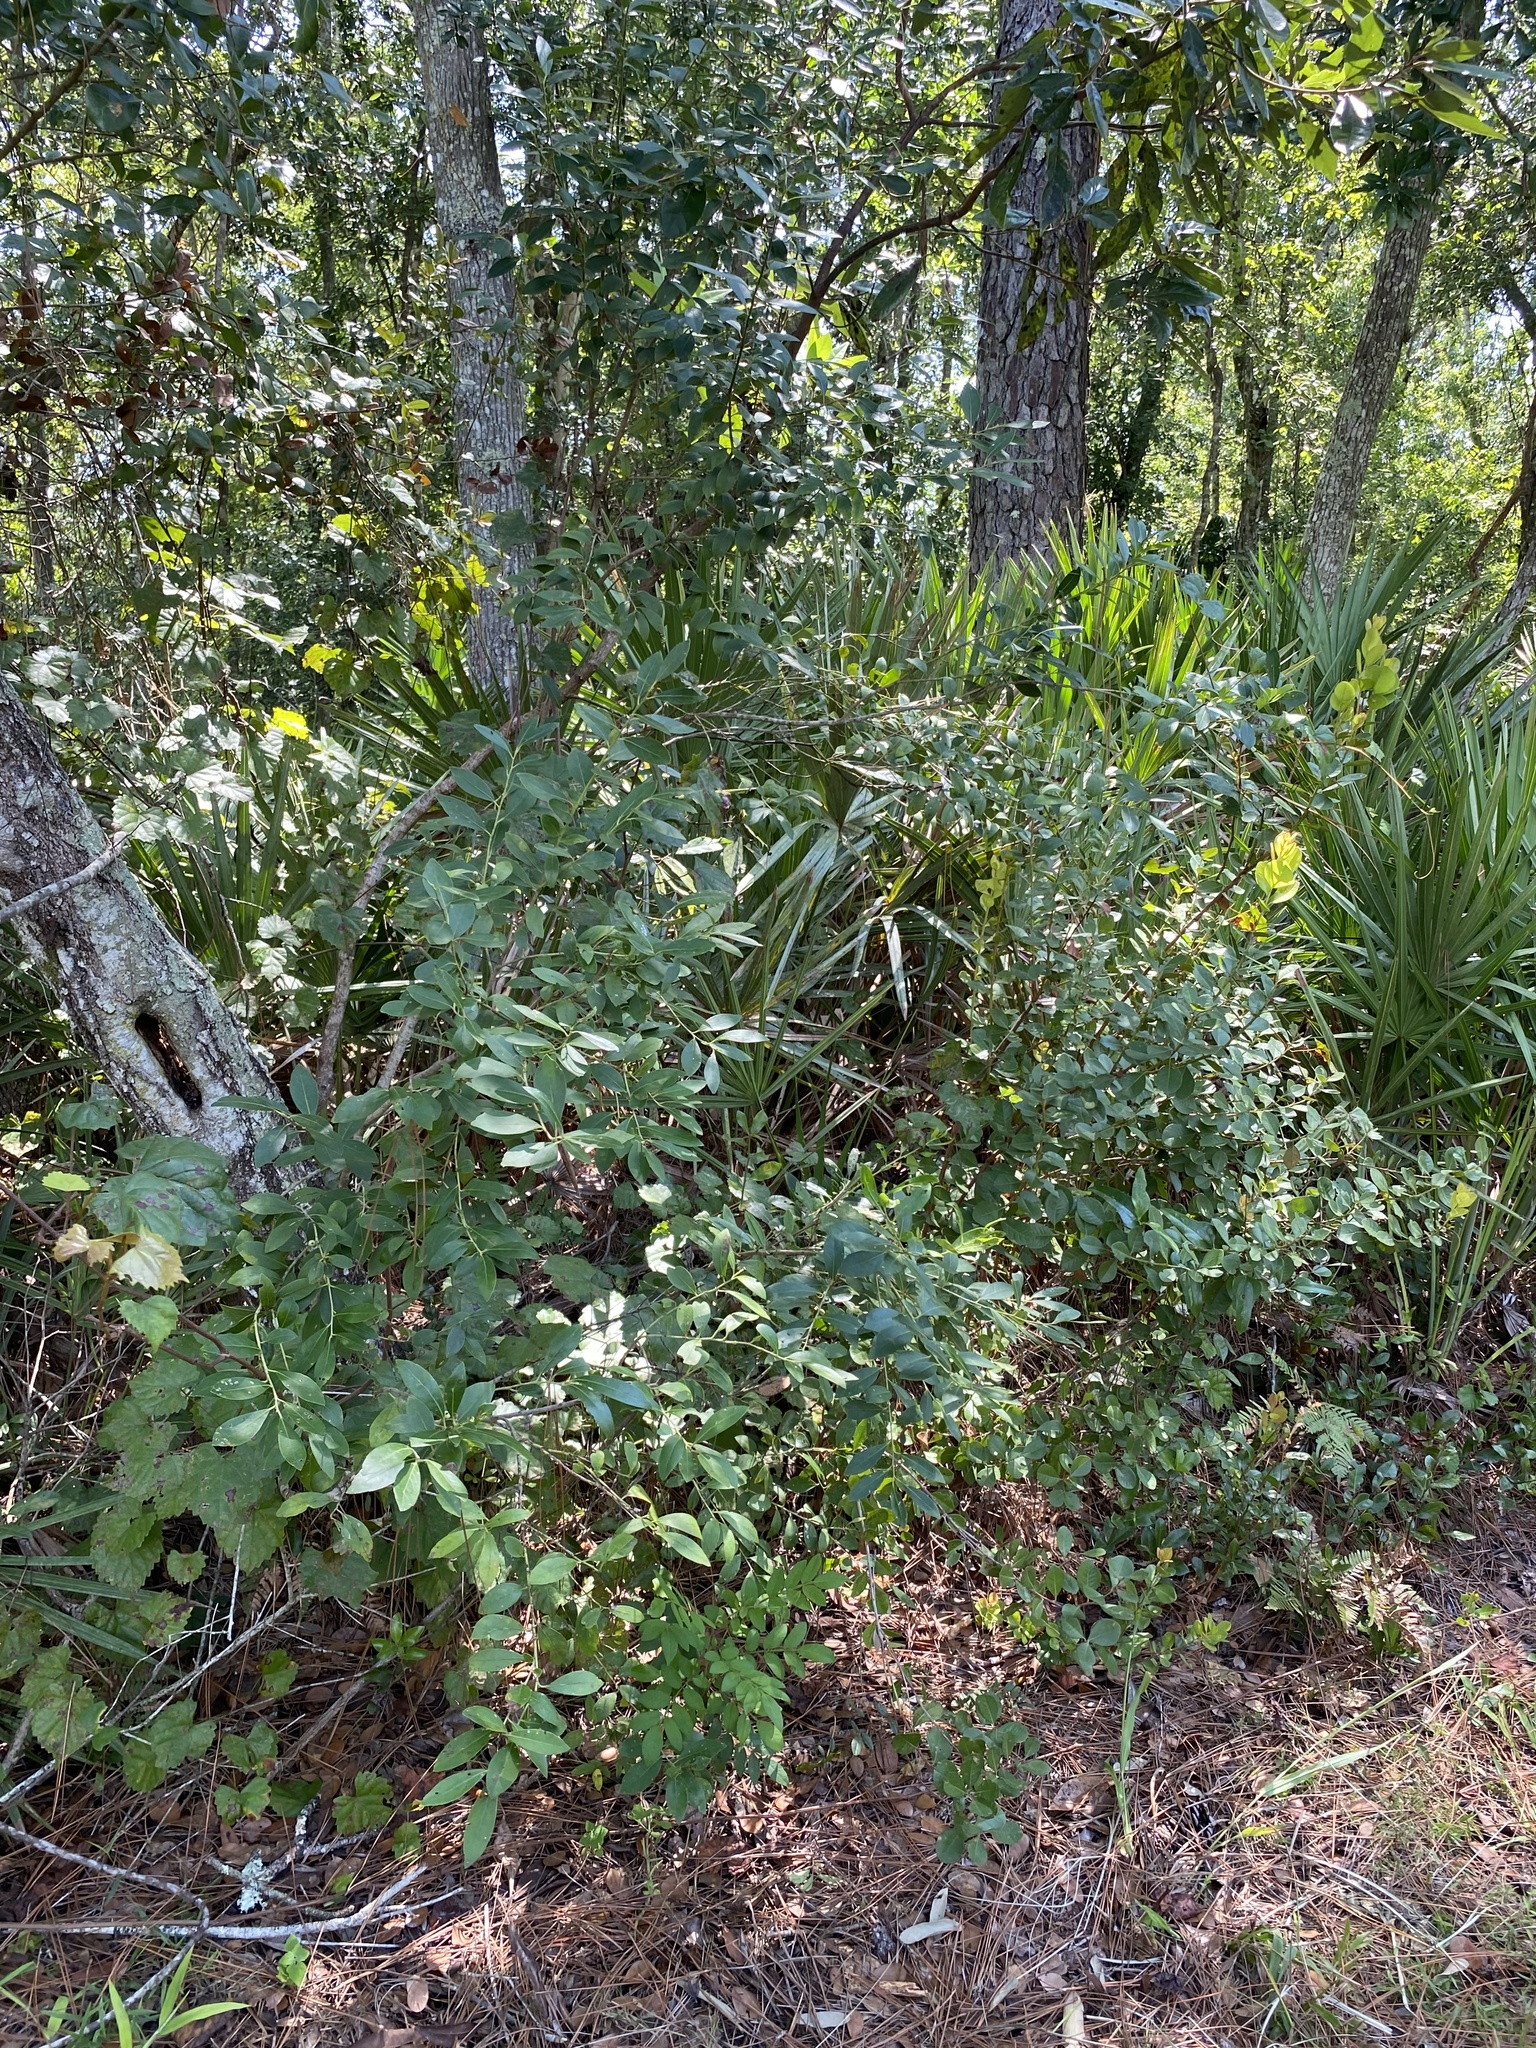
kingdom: Plantae
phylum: Tracheophyta
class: Magnoliopsida
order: Aquifoliales
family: Aquifoliaceae
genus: Ilex
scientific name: Ilex glabra
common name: Bitter gallberry
